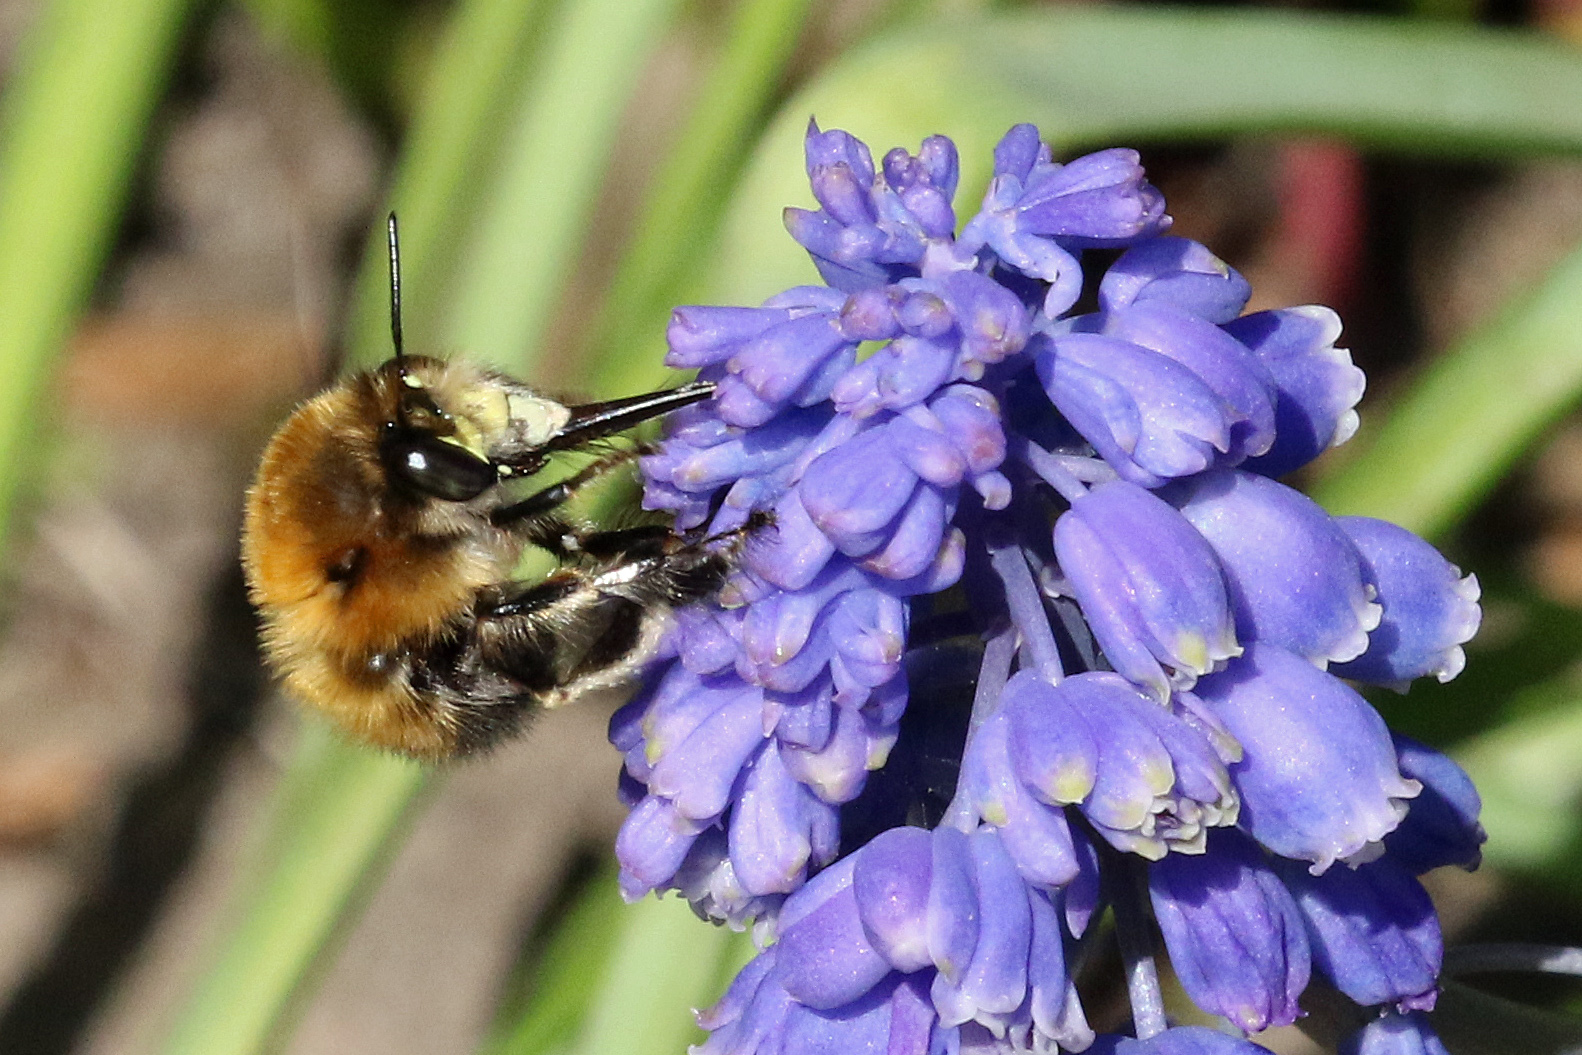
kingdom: Animalia
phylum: Arthropoda
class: Insecta
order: Hymenoptera
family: Apidae
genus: Anthophora
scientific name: Anthophora plumipes
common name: Hairy-footed flower bee
